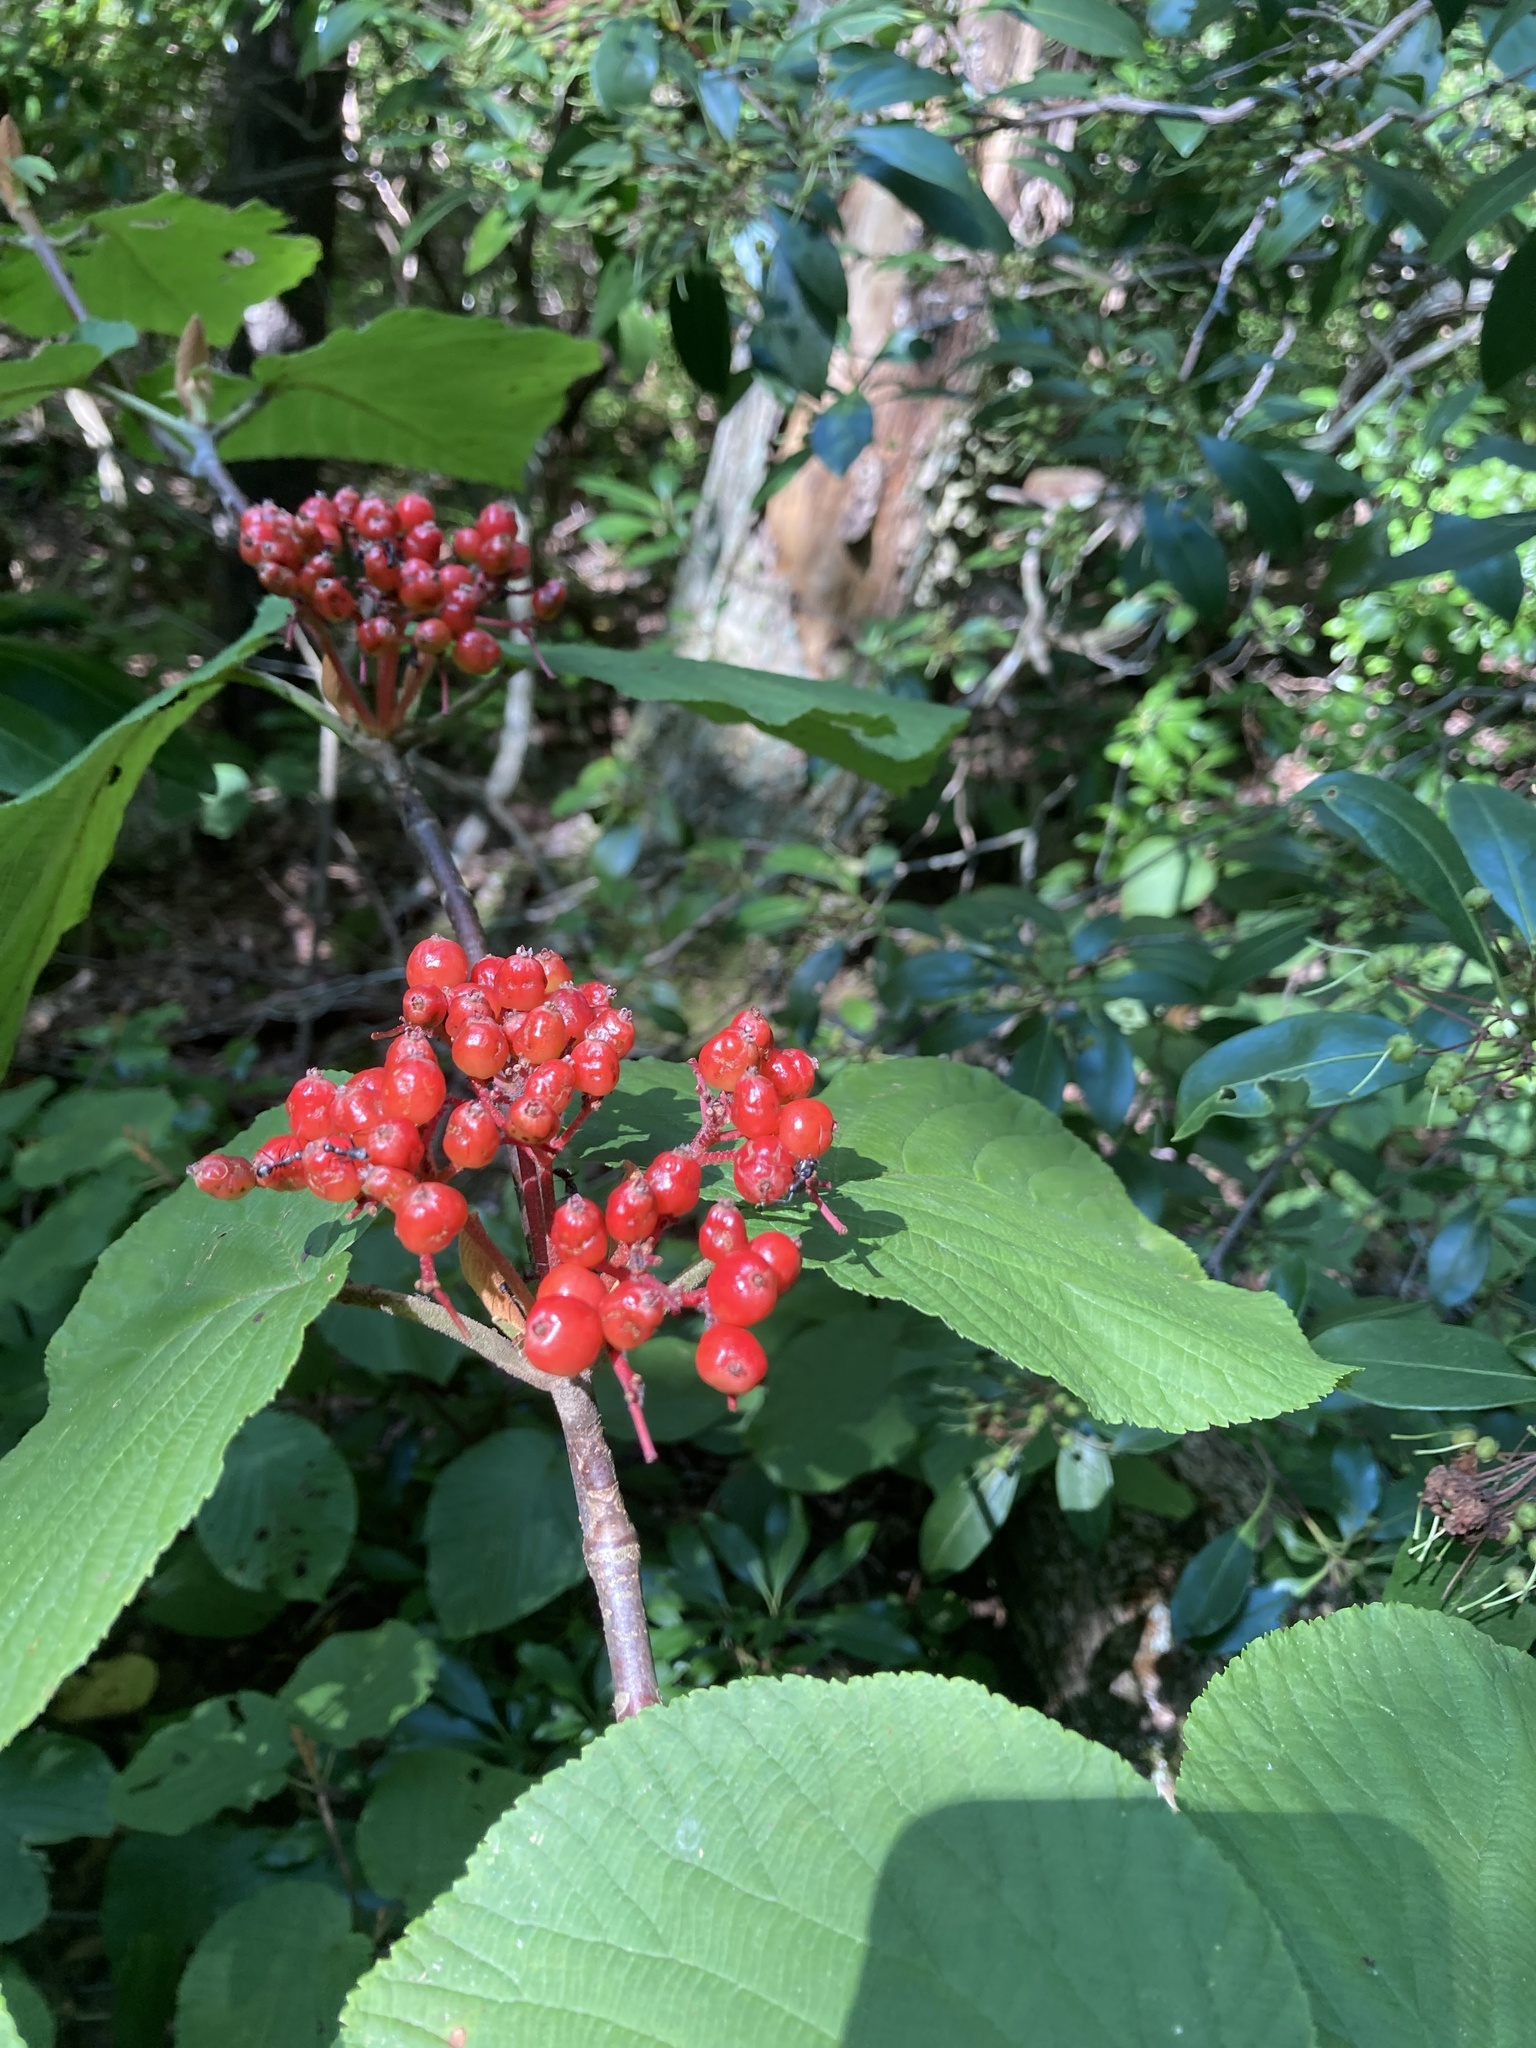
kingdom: Plantae
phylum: Tracheophyta
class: Magnoliopsida
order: Dipsacales
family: Viburnaceae
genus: Viburnum
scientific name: Viburnum lantanoides
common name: Hobblebush
